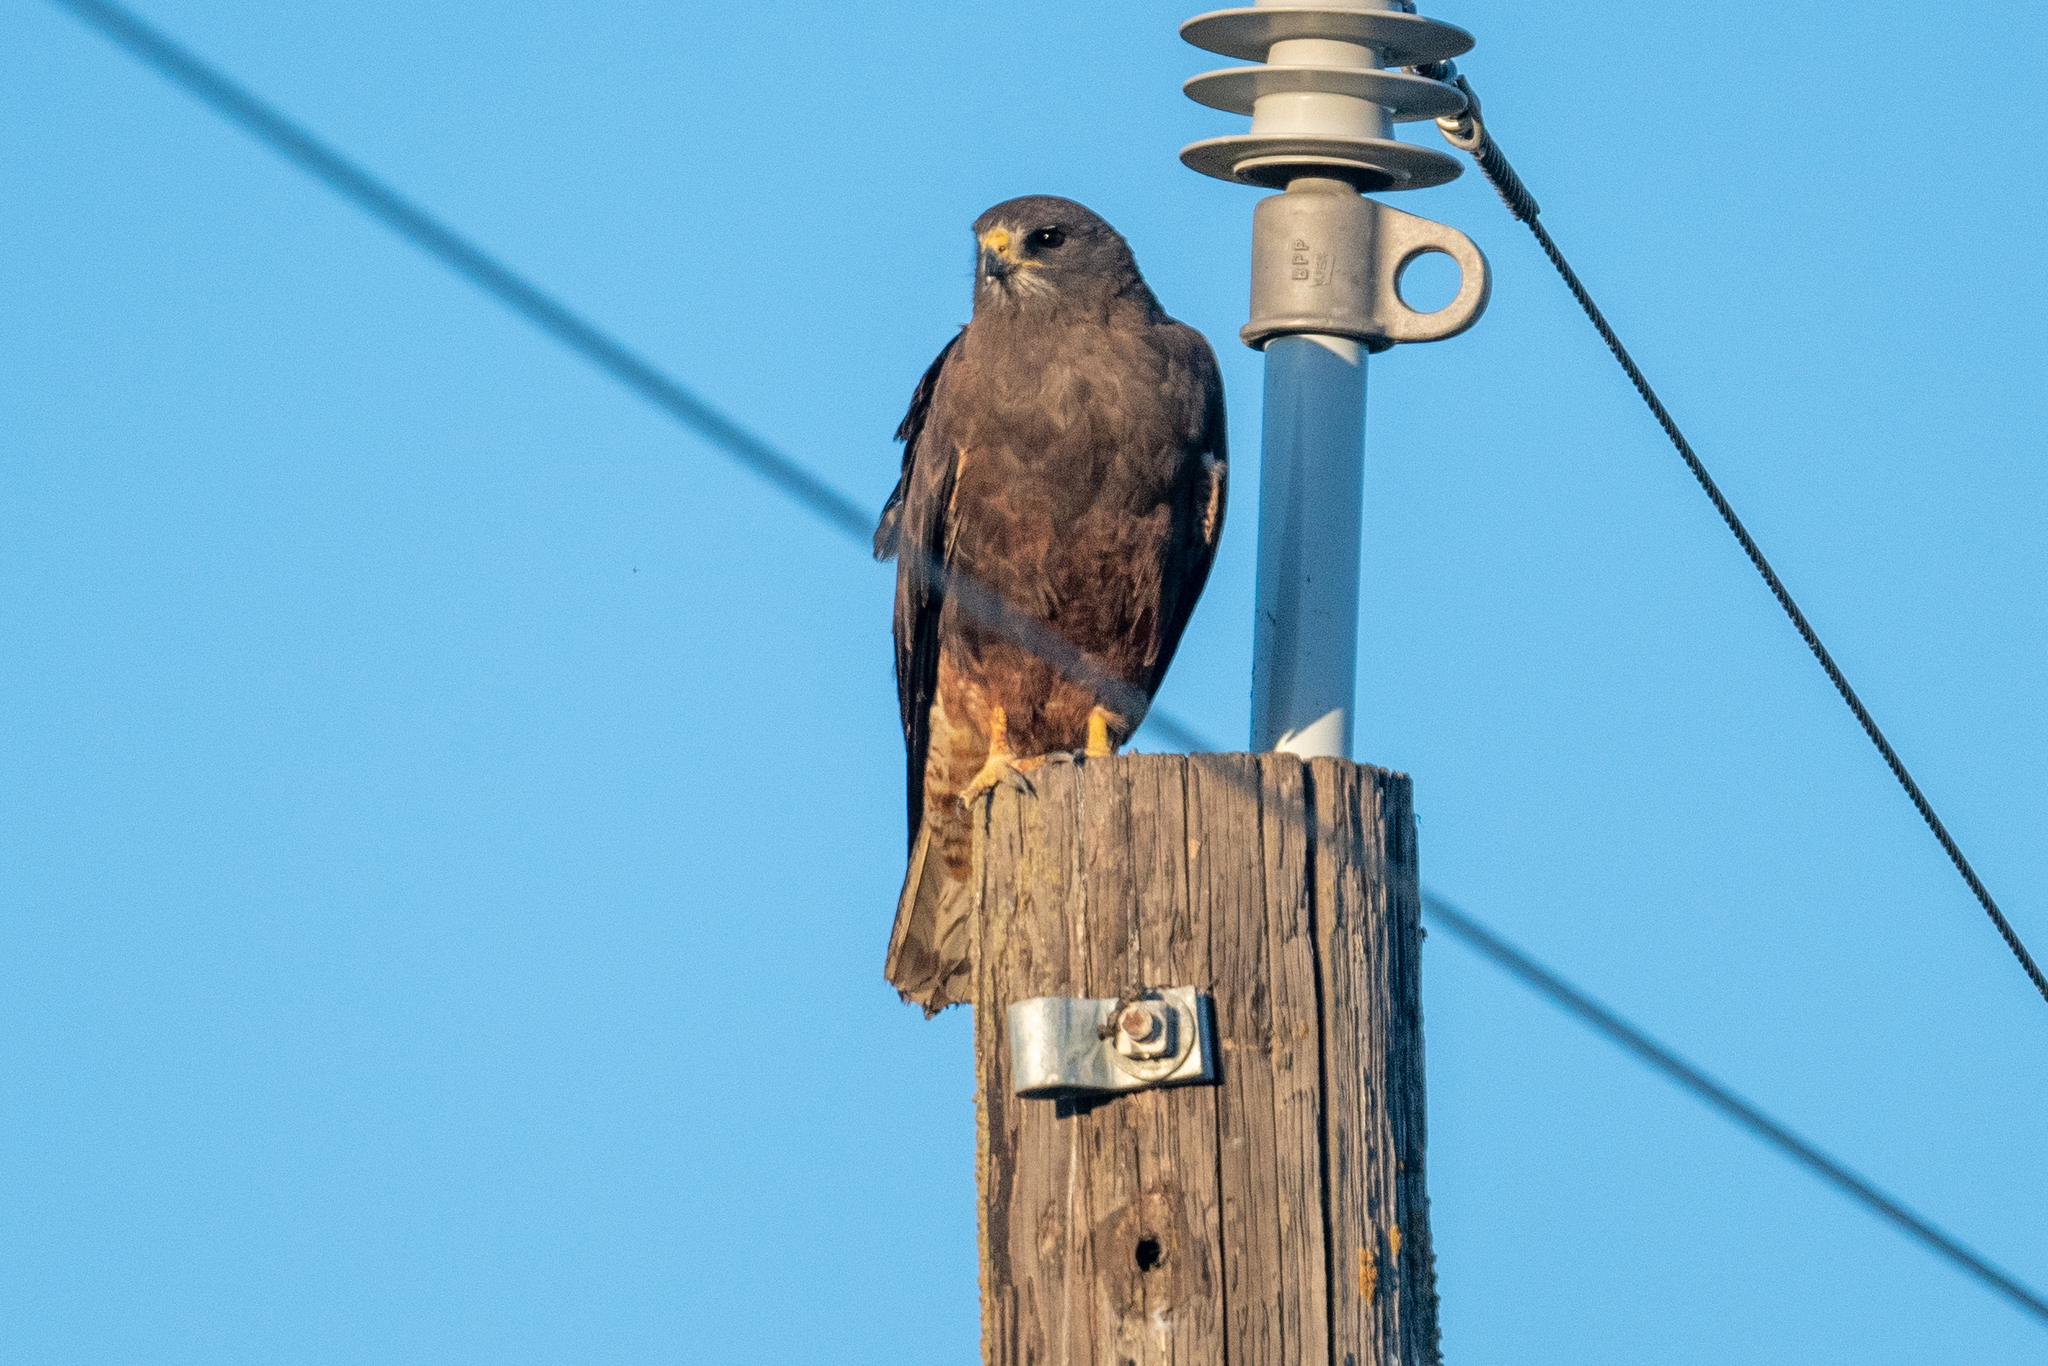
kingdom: Animalia
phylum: Chordata
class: Aves
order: Accipitriformes
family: Accipitridae
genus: Buteo
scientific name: Buteo swainsoni
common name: Swainson's hawk
